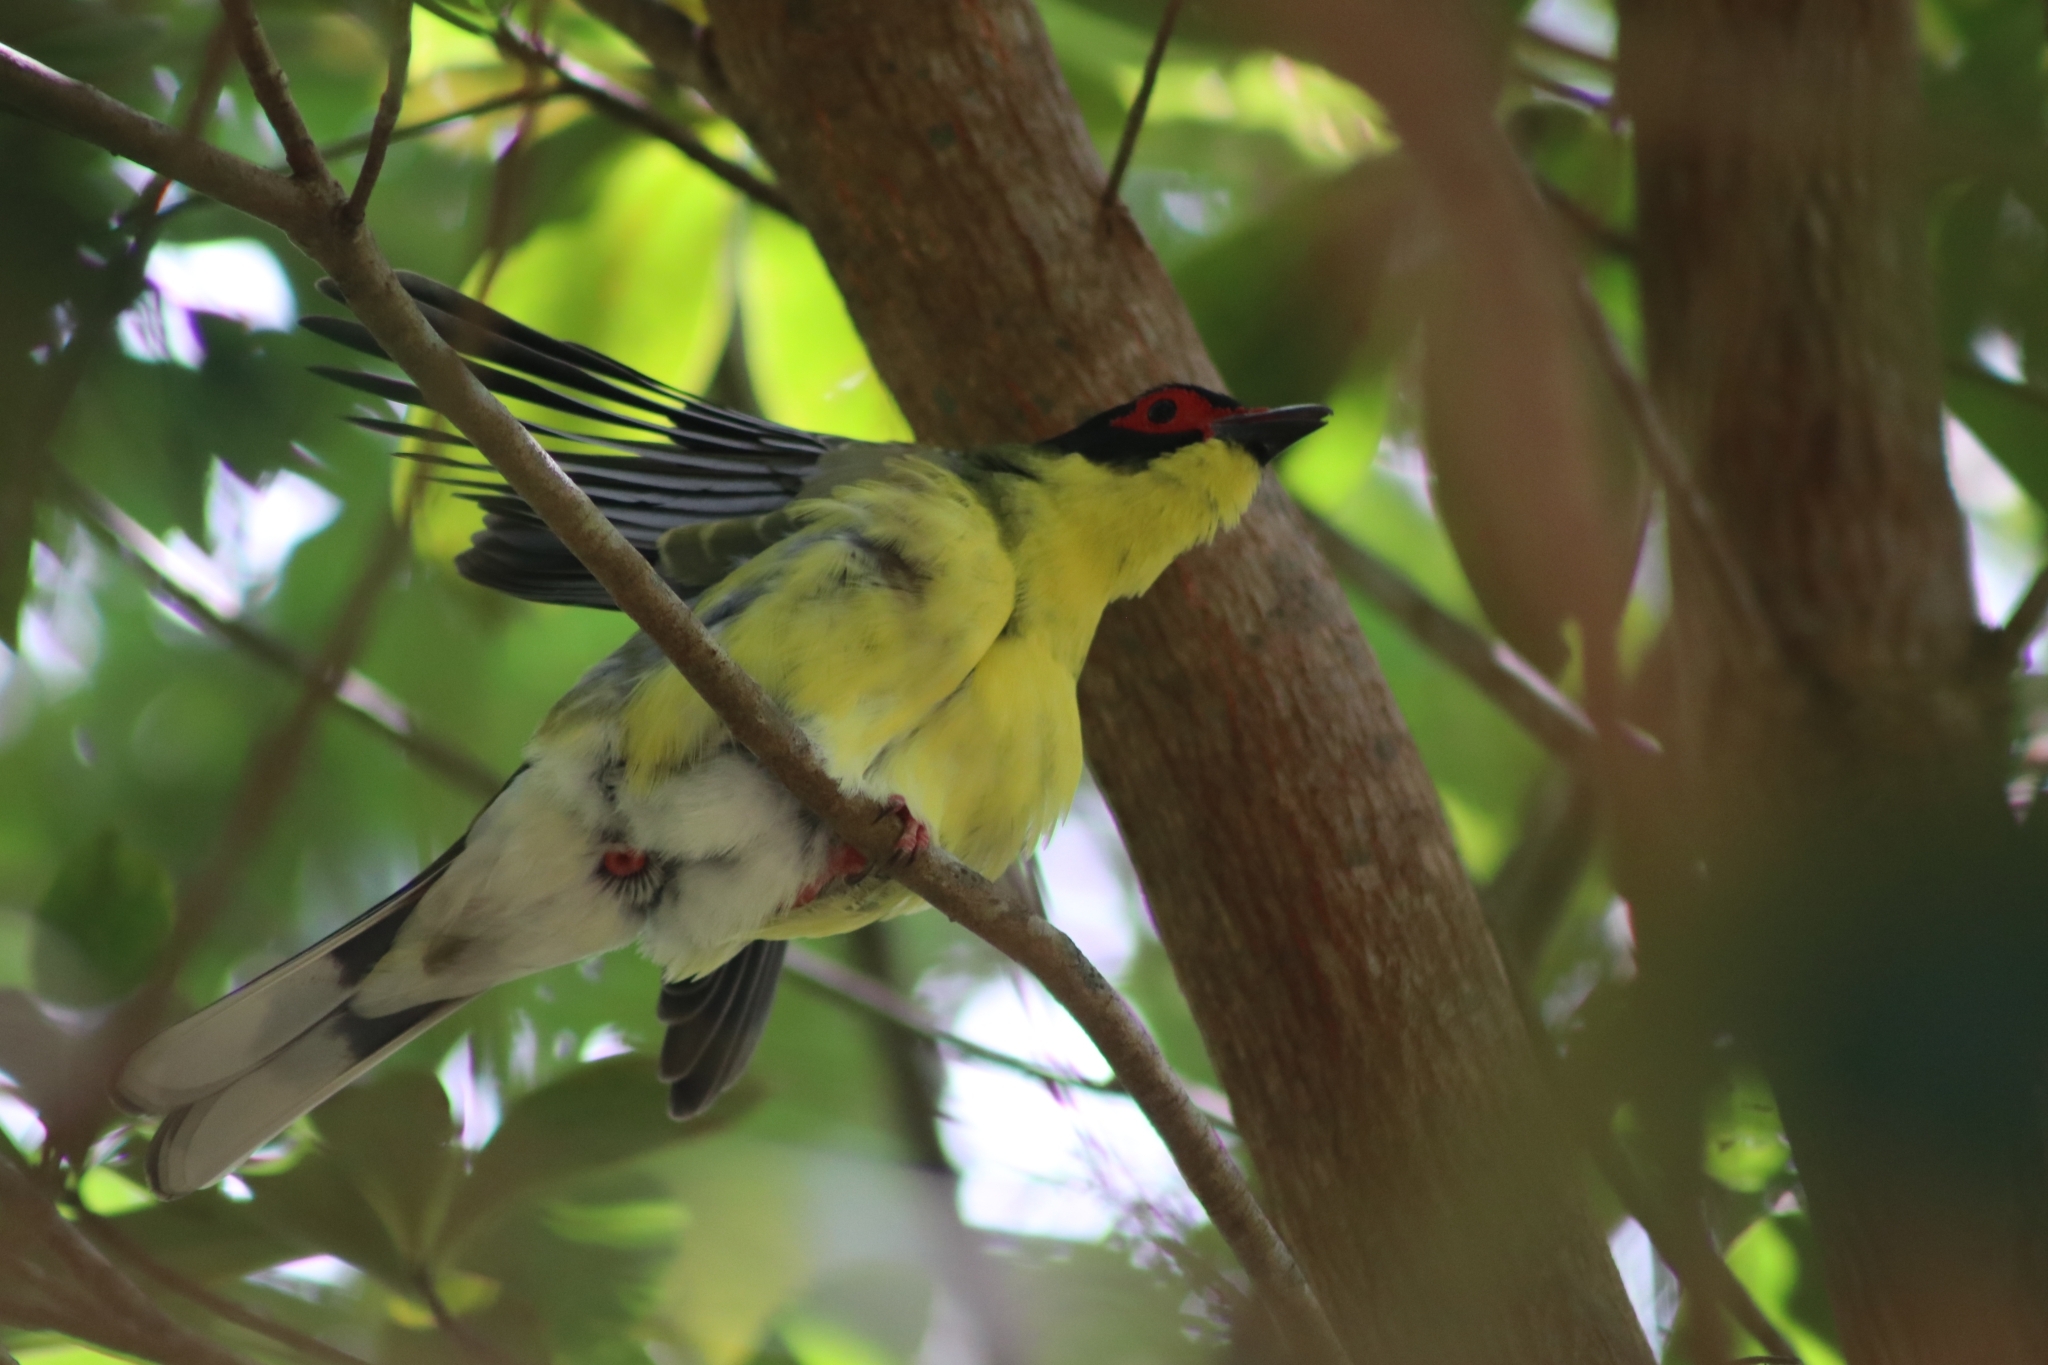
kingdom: Animalia
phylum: Chordata
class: Aves
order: Passeriformes
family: Oriolidae
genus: Sphecotheres
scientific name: Sphecotheres vieilloti
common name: Australasian figbird
